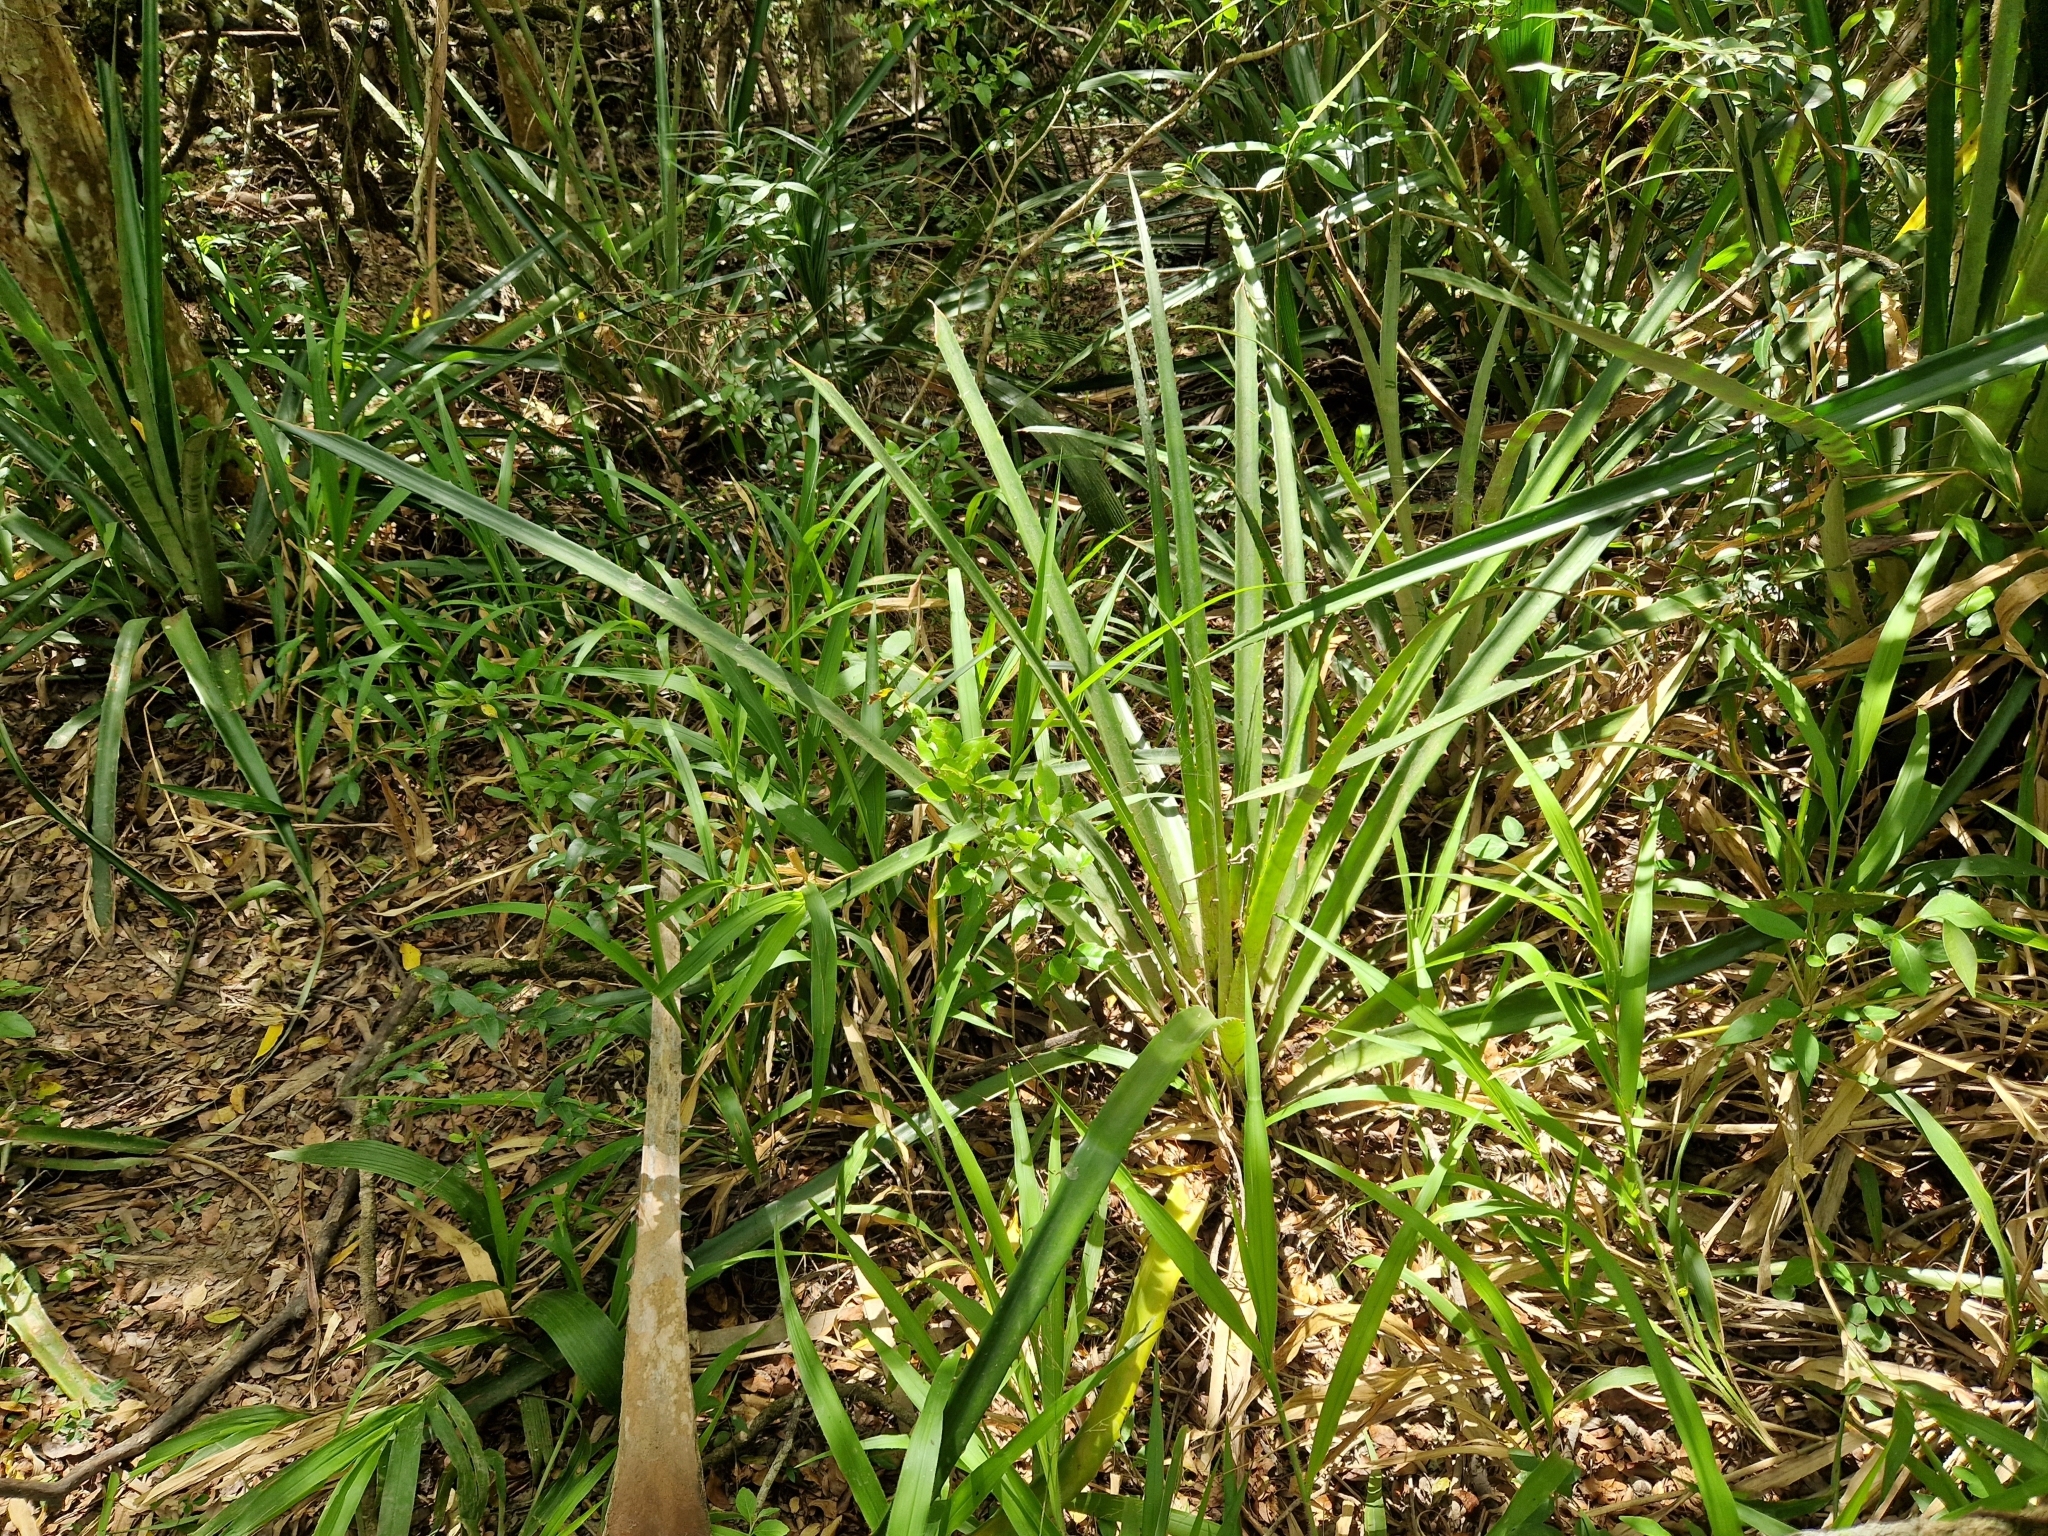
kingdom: Plantae
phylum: Tracheophyta
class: Liliopsida
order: Poales
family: Bromeliaceae
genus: Bromelia
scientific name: Bromelia balansae
